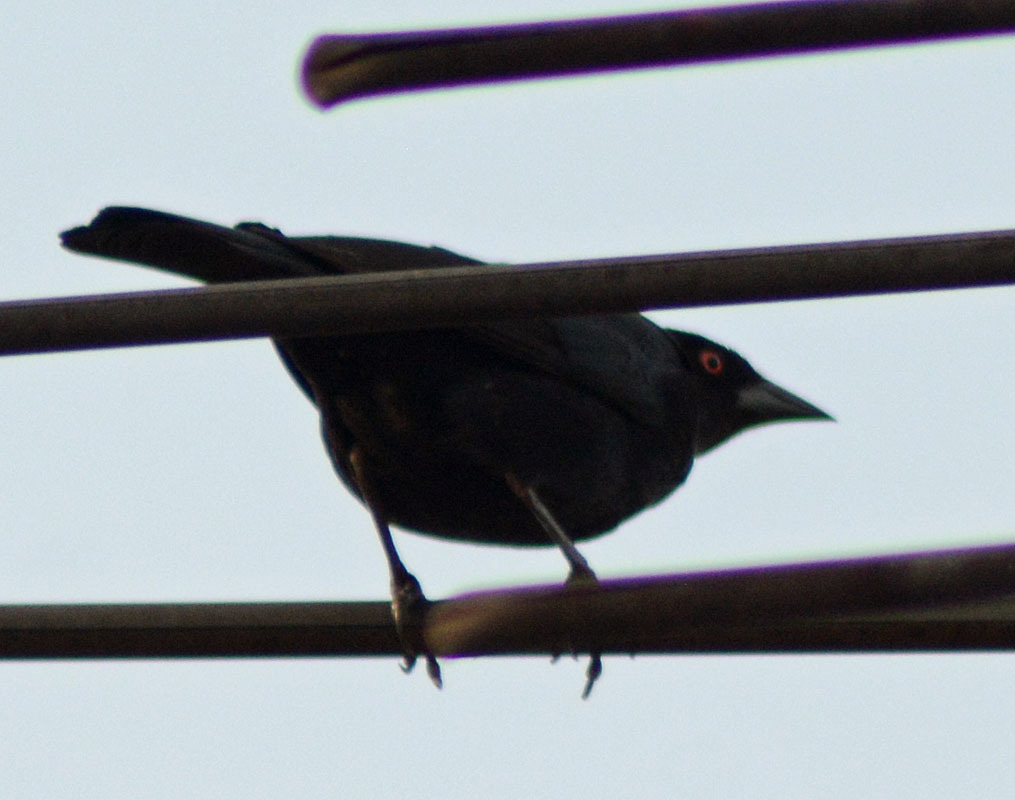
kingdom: Animalia
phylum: Chordata
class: Aves
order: Passeriformes
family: Icteridae
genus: Molothrus
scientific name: Molothrus aeneus
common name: Bronzed cowbird
